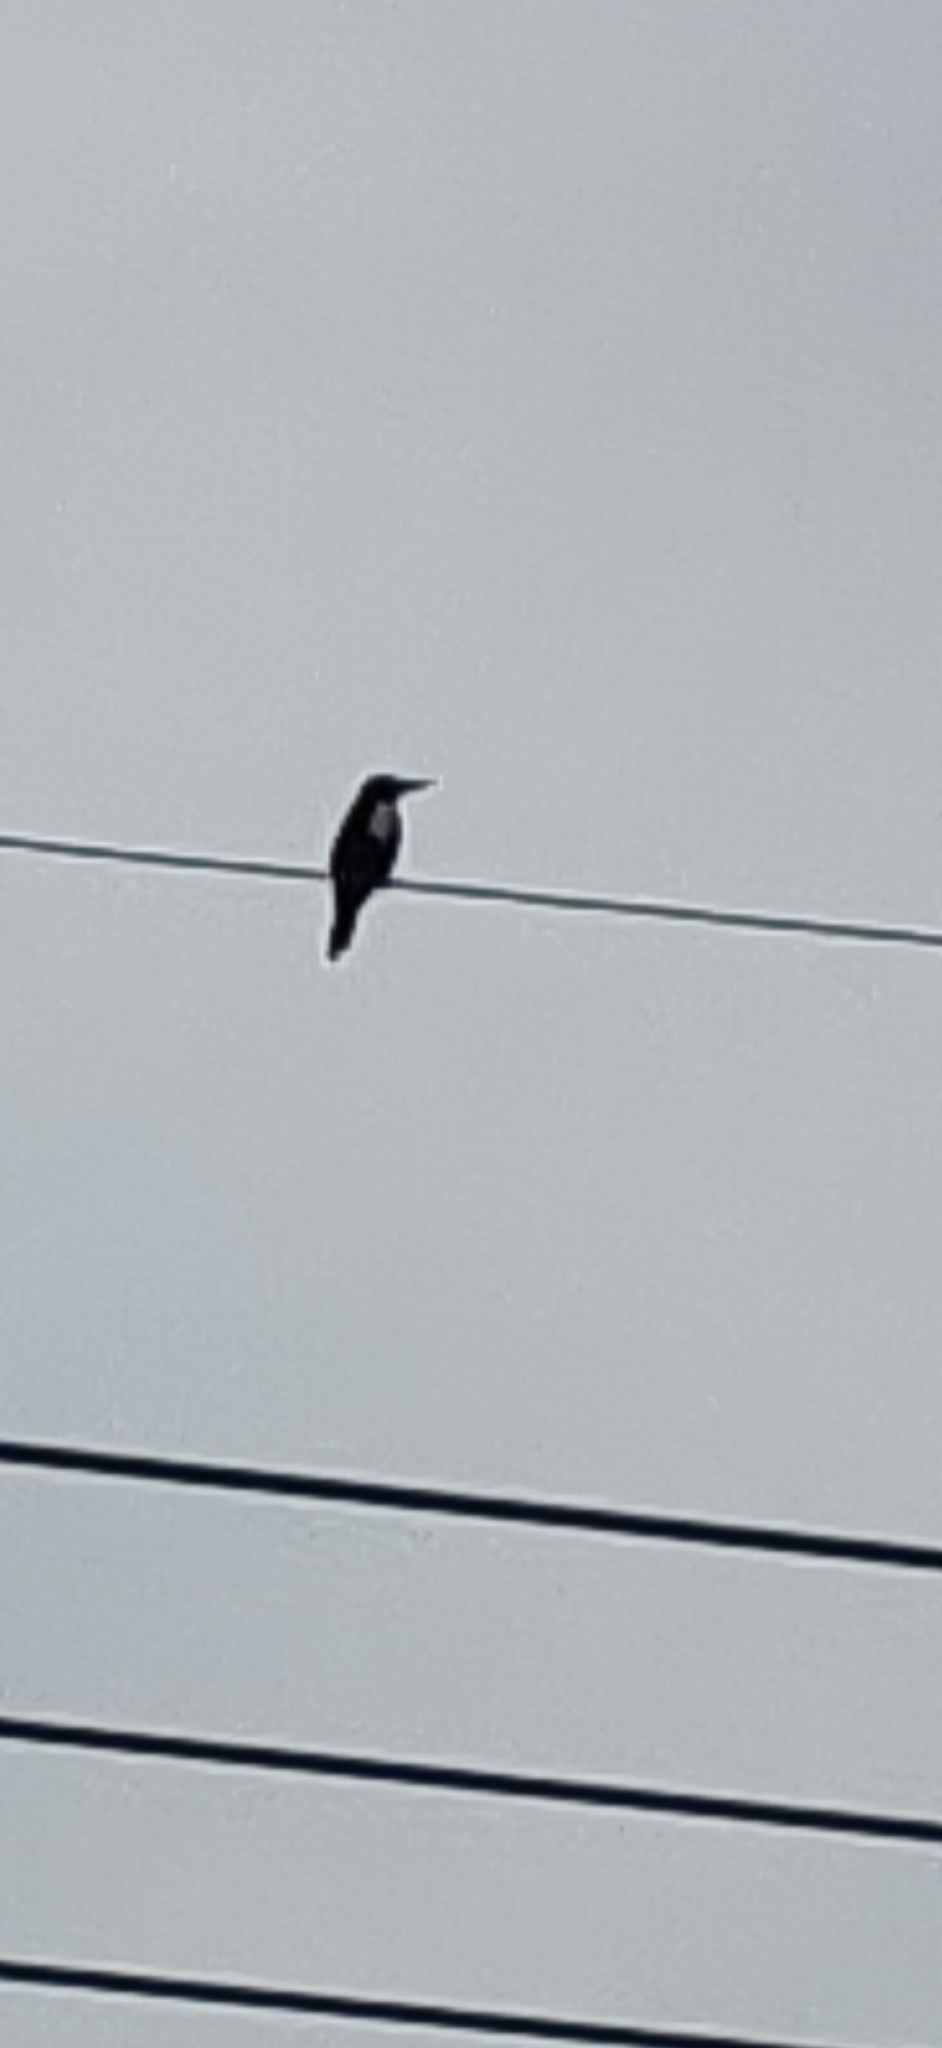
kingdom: Animalia
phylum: Chordata
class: Aves
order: Coraciiformes
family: Alcedinidae
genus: Halcyon
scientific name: Halcyon smyrnensis
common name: White-throated kingfisher
